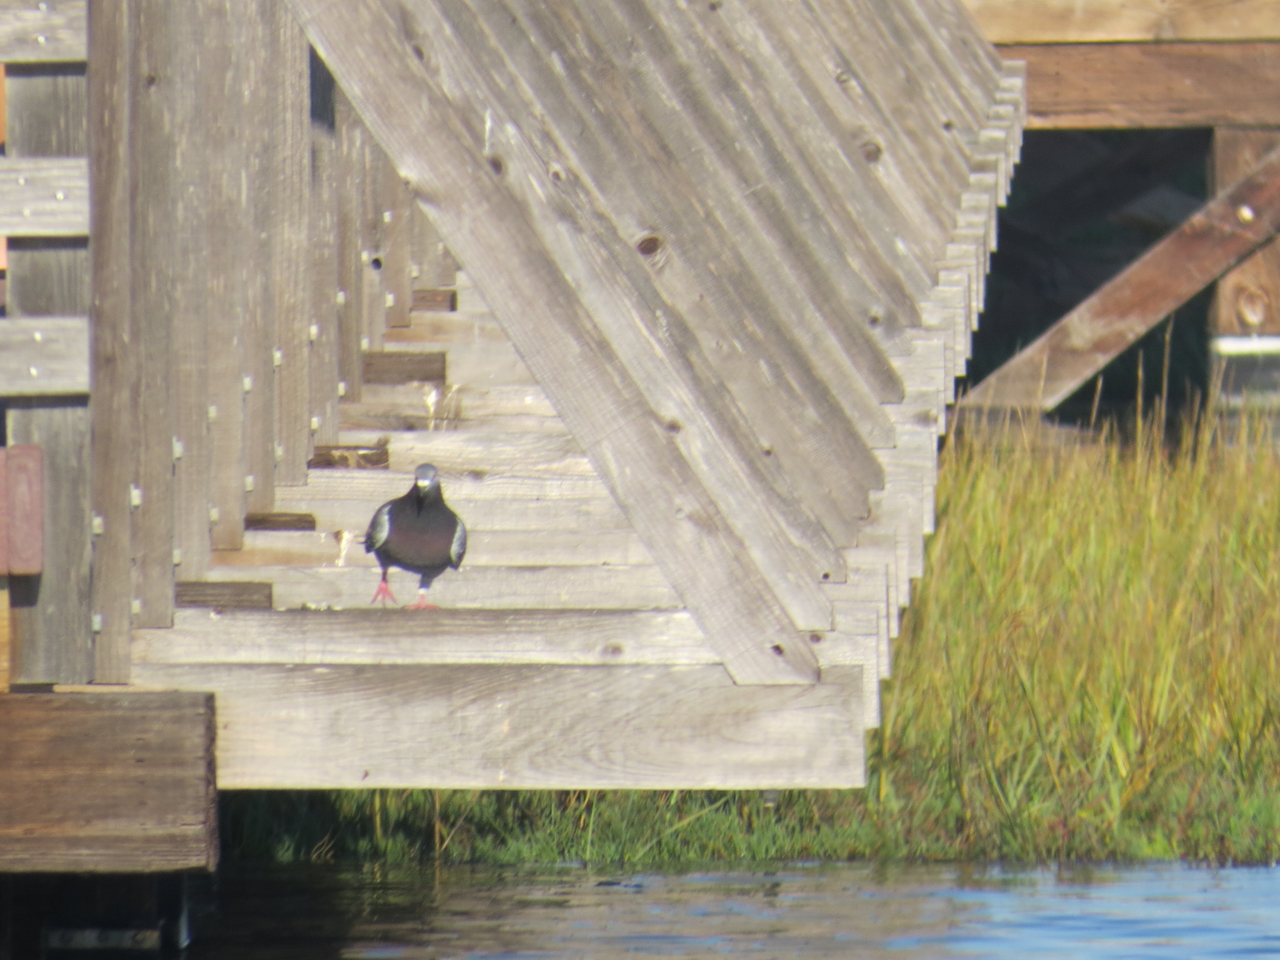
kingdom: Animalia
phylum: Chordata
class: Aves
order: Columbiformes
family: Columbidae
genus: Columba
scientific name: Columba livia
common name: Rock pigeon
